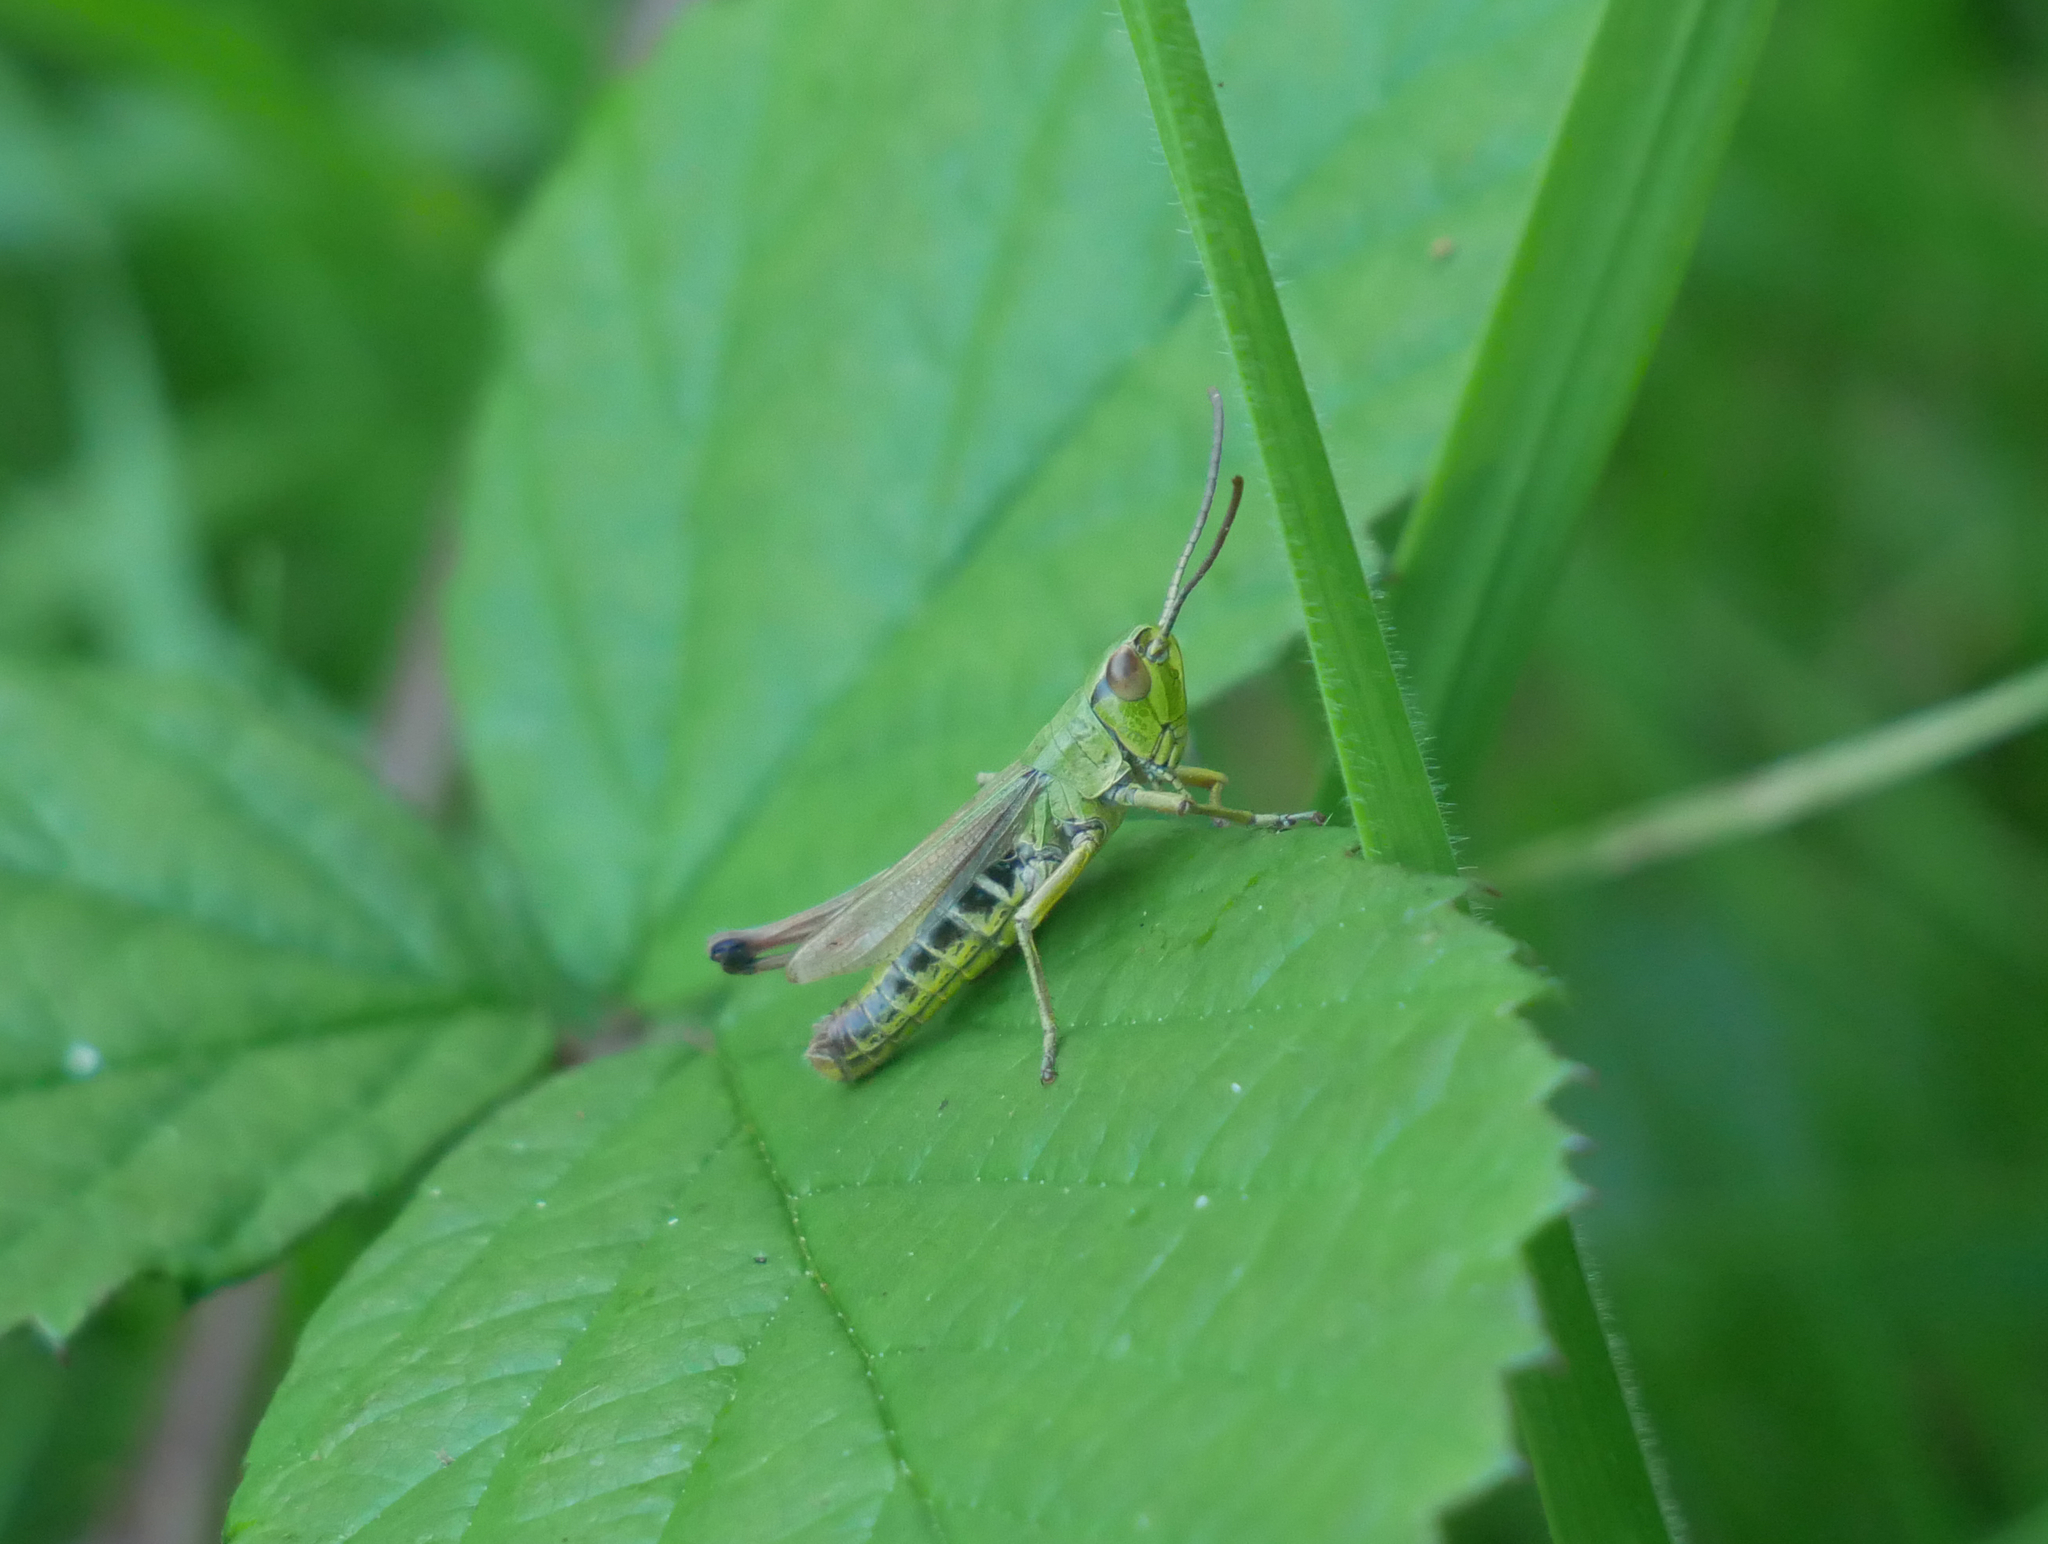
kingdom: Animalia
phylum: Arthropoda
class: Insecta
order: Orthoptera
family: Acrididae
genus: Pseudochorthippus
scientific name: Pseudochorthippus parallelus
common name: Meadow grasshopper
